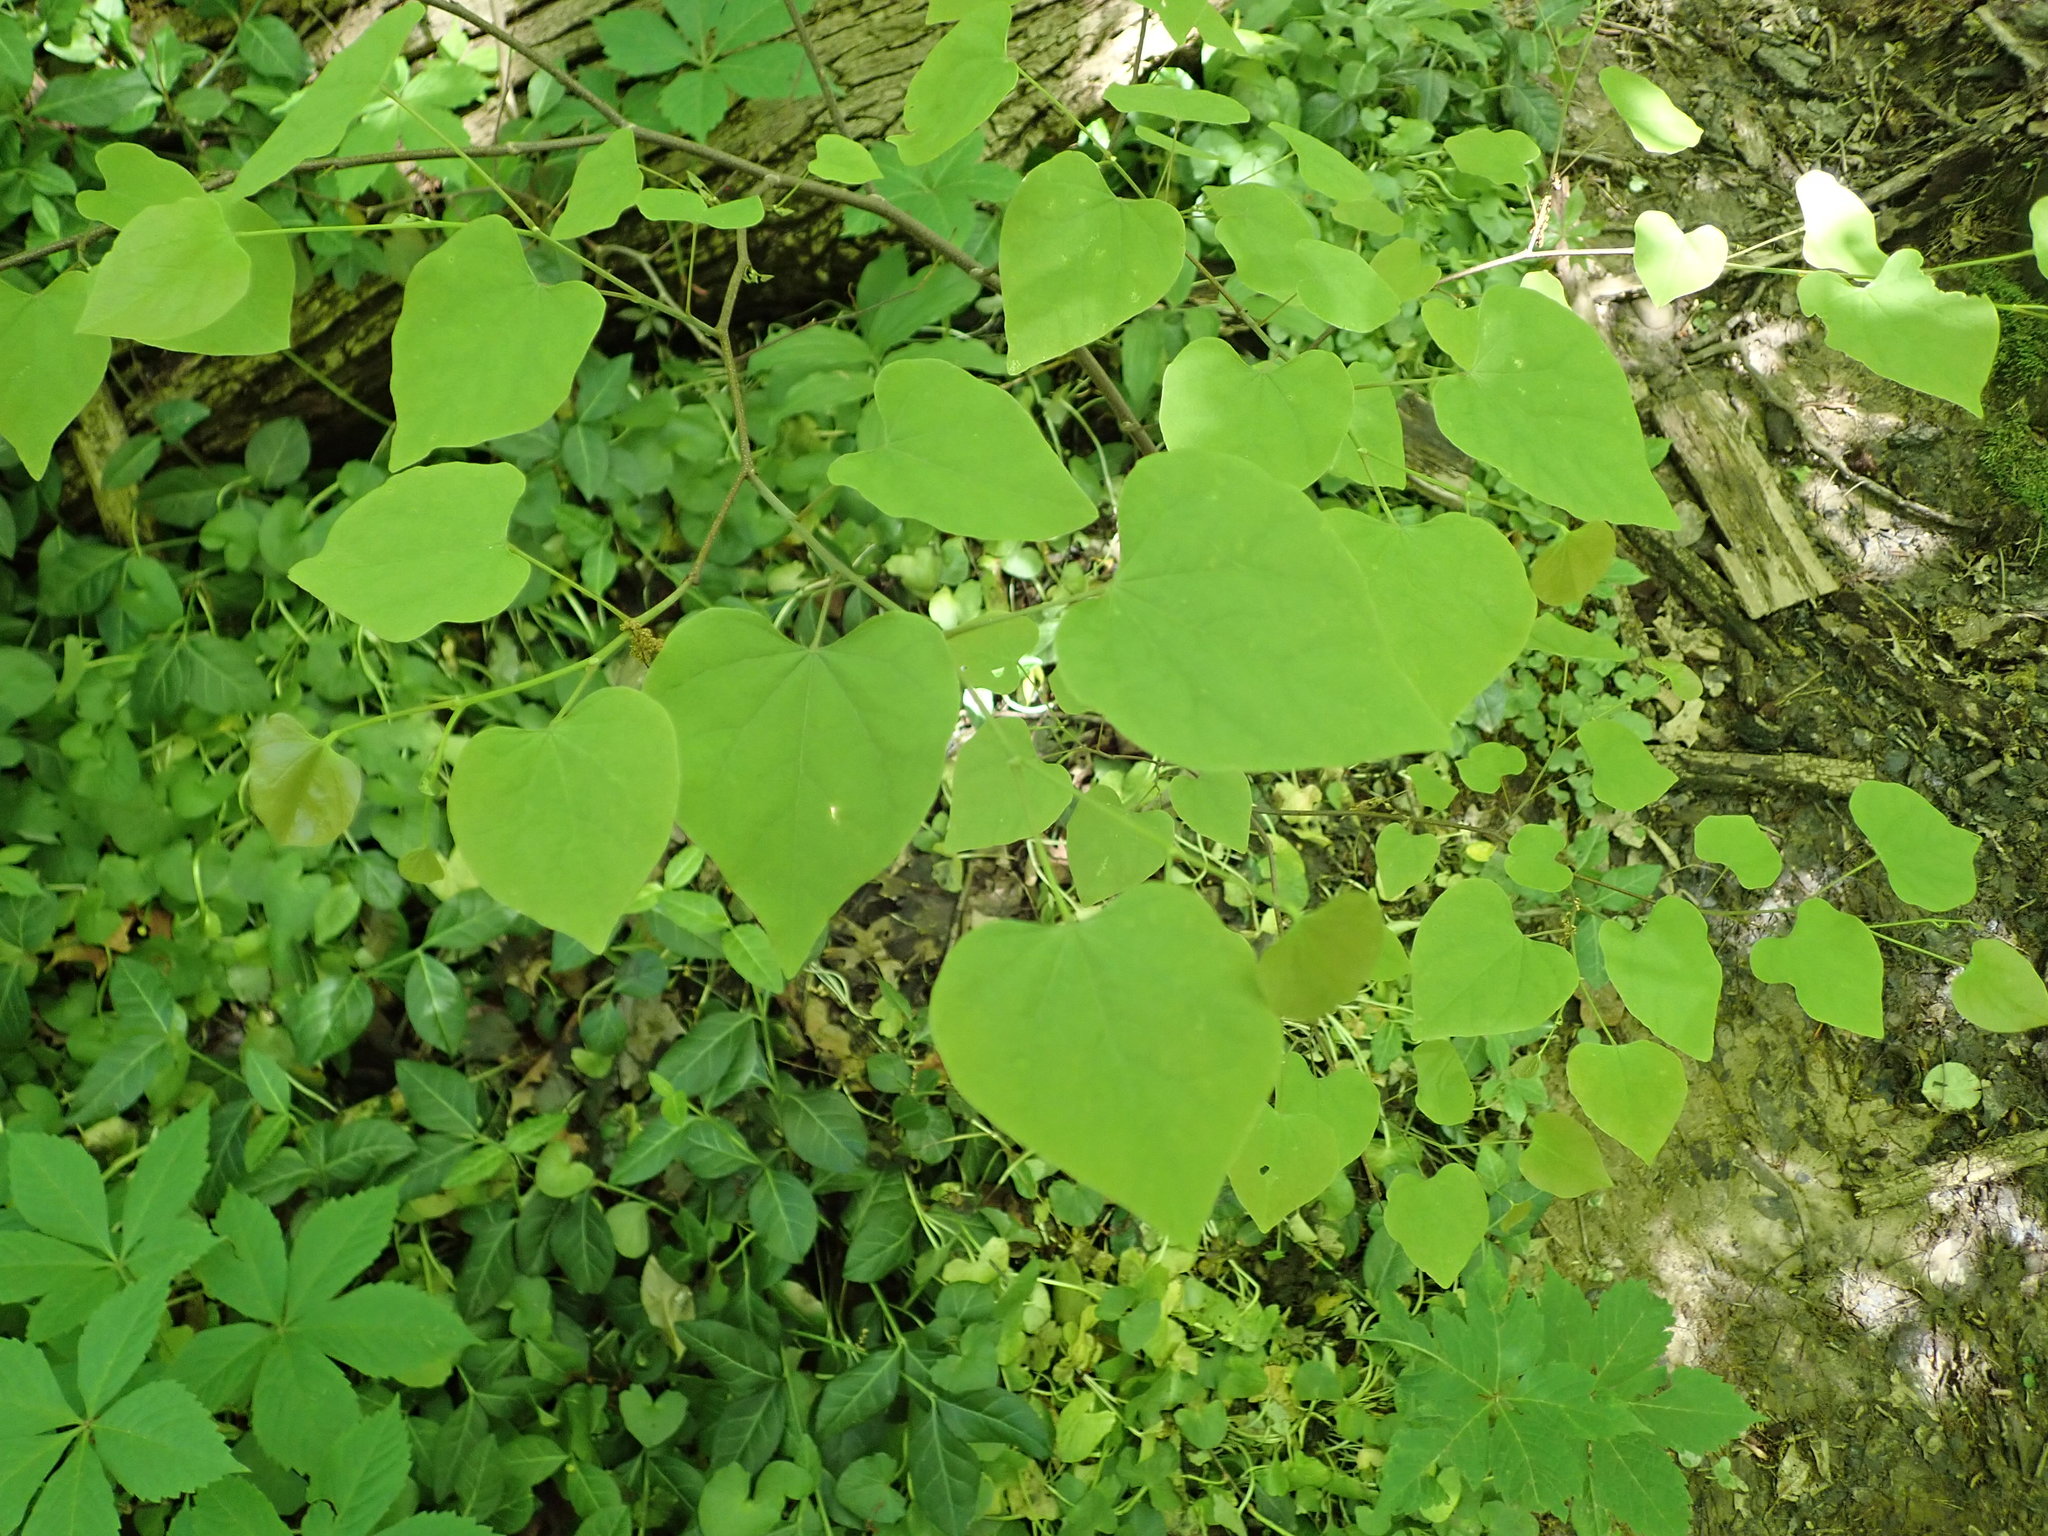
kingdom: Plantae
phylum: Tracheophyta
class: Magnoliopsida
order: Fabales
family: Fabaceae
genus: Cercis
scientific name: Cercis canadensis
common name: Eastern redbud
